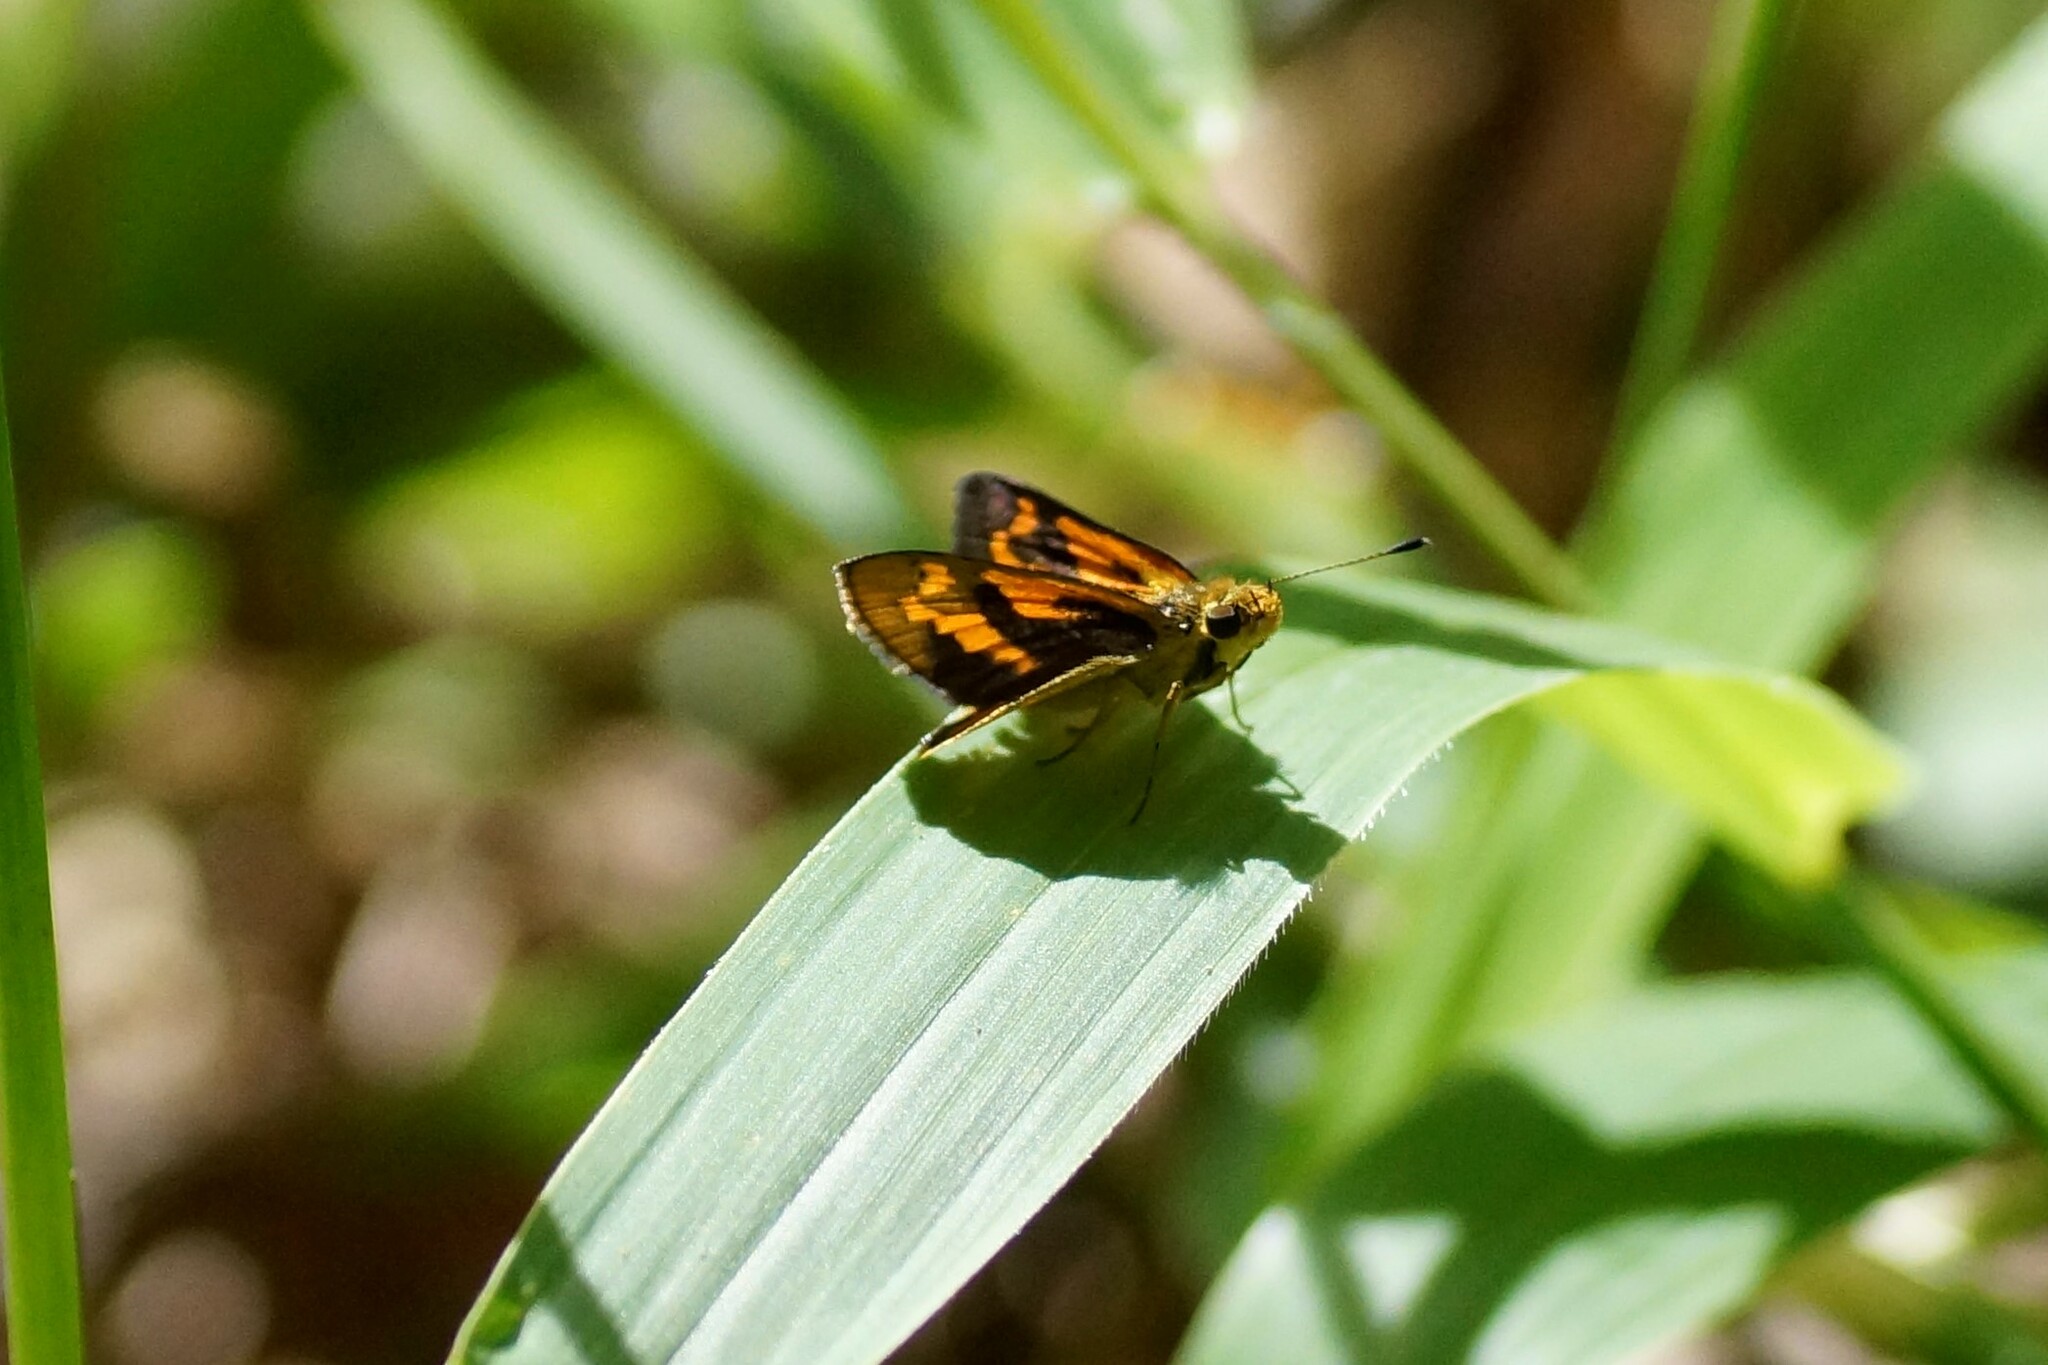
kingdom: Animalia
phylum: Arthropoda
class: Insecta
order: Lepidoptera
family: Hesperiidae
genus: Ocybadistes
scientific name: Ocybadistes ardea
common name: Dark orange dart
